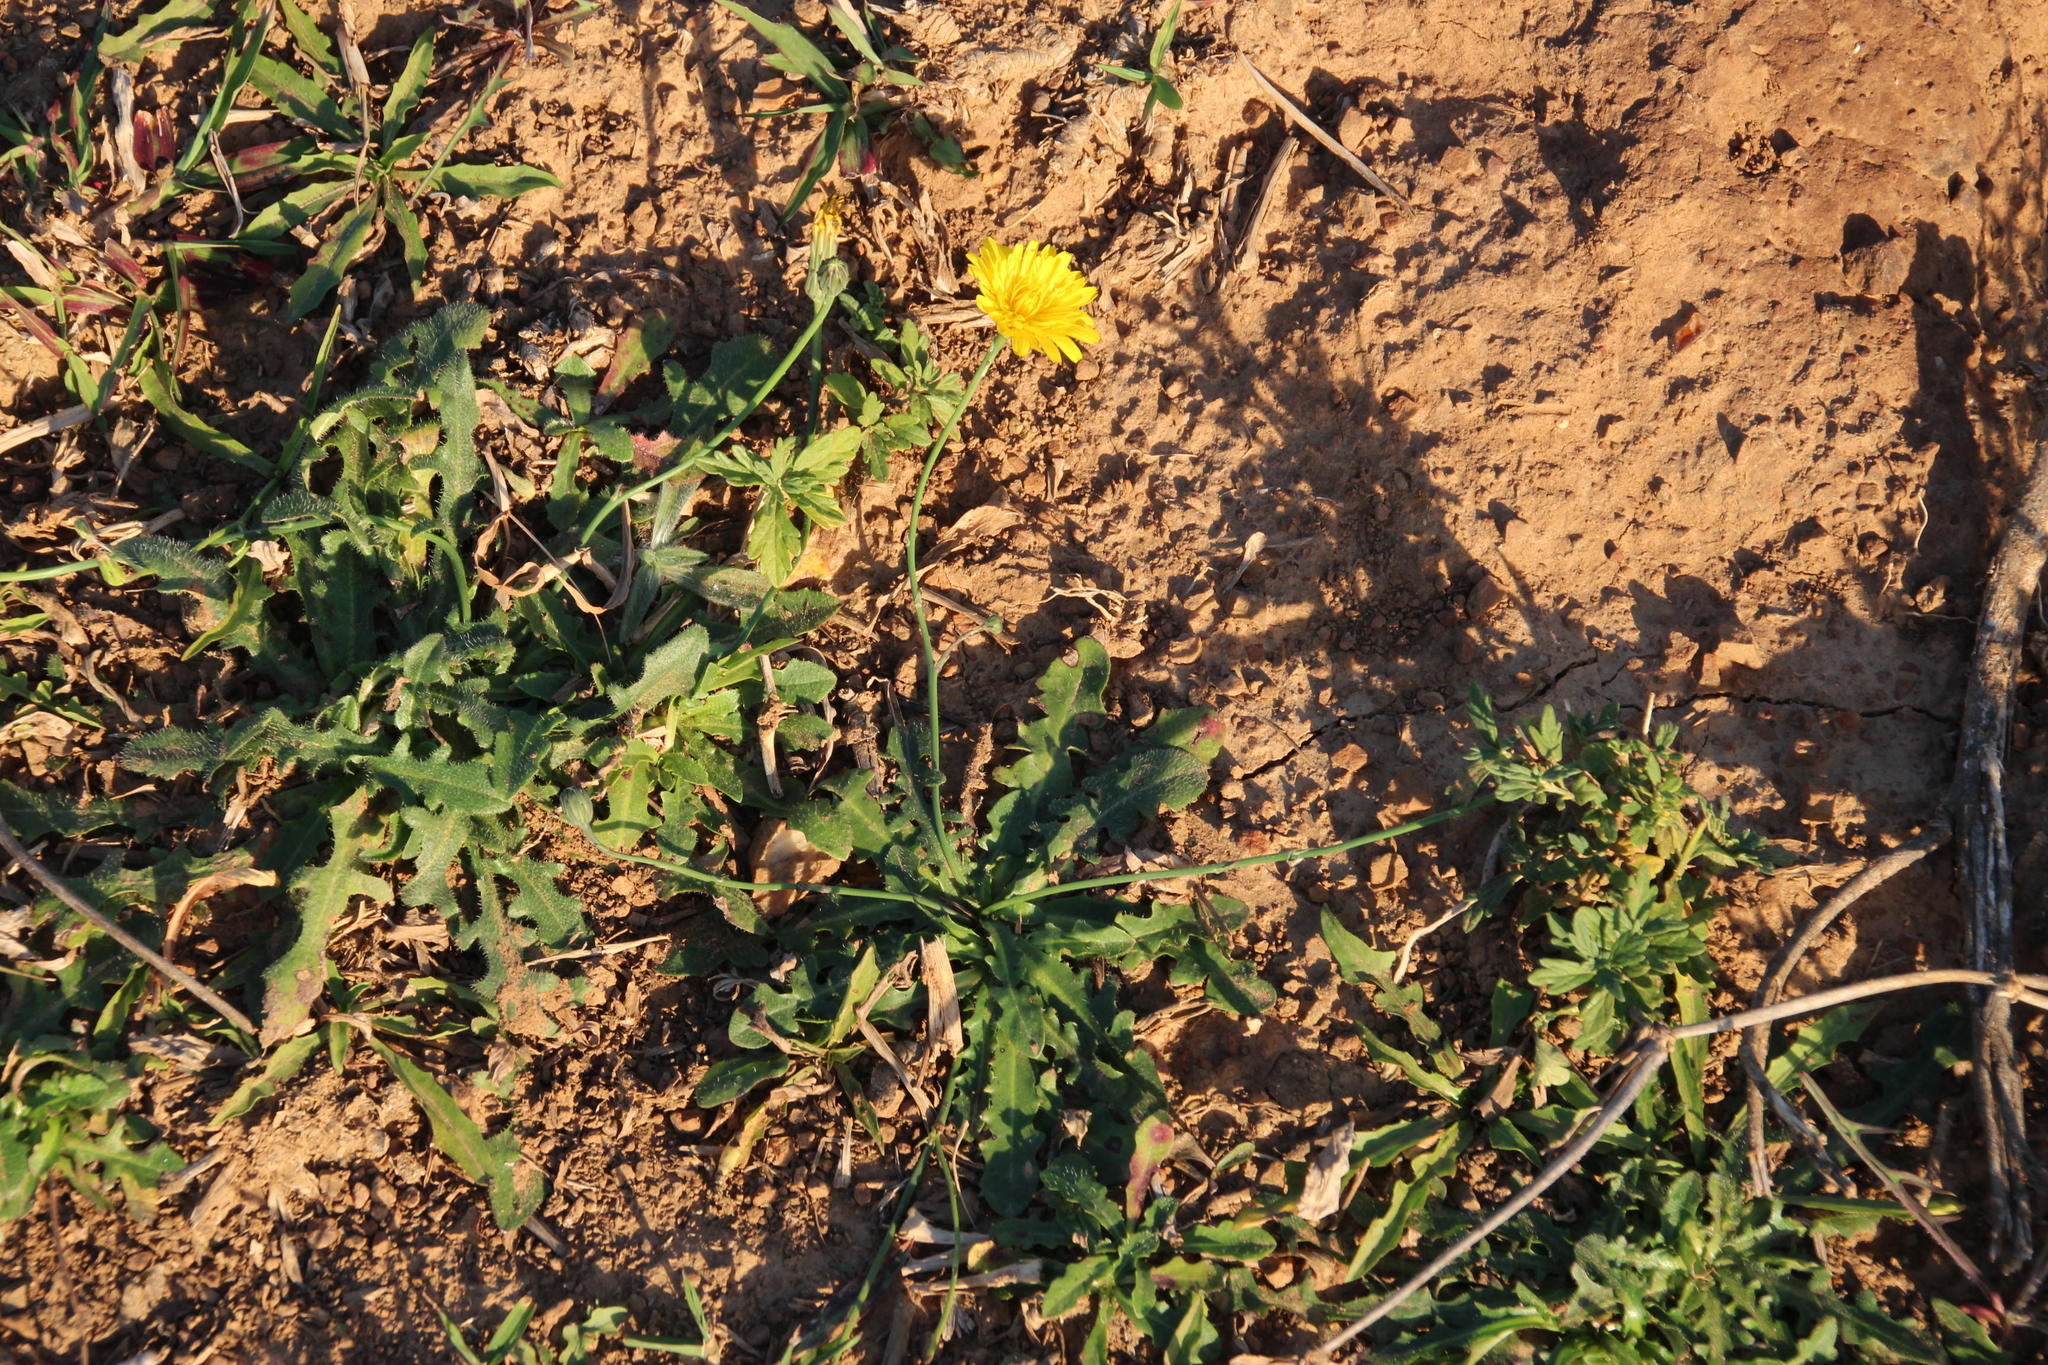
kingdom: Plantae
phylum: Tracheophyta
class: Magnoliopsida
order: Asterales
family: Asteraceae
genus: Hypochaeris
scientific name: Hypochaeris radicata
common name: Flatweed
